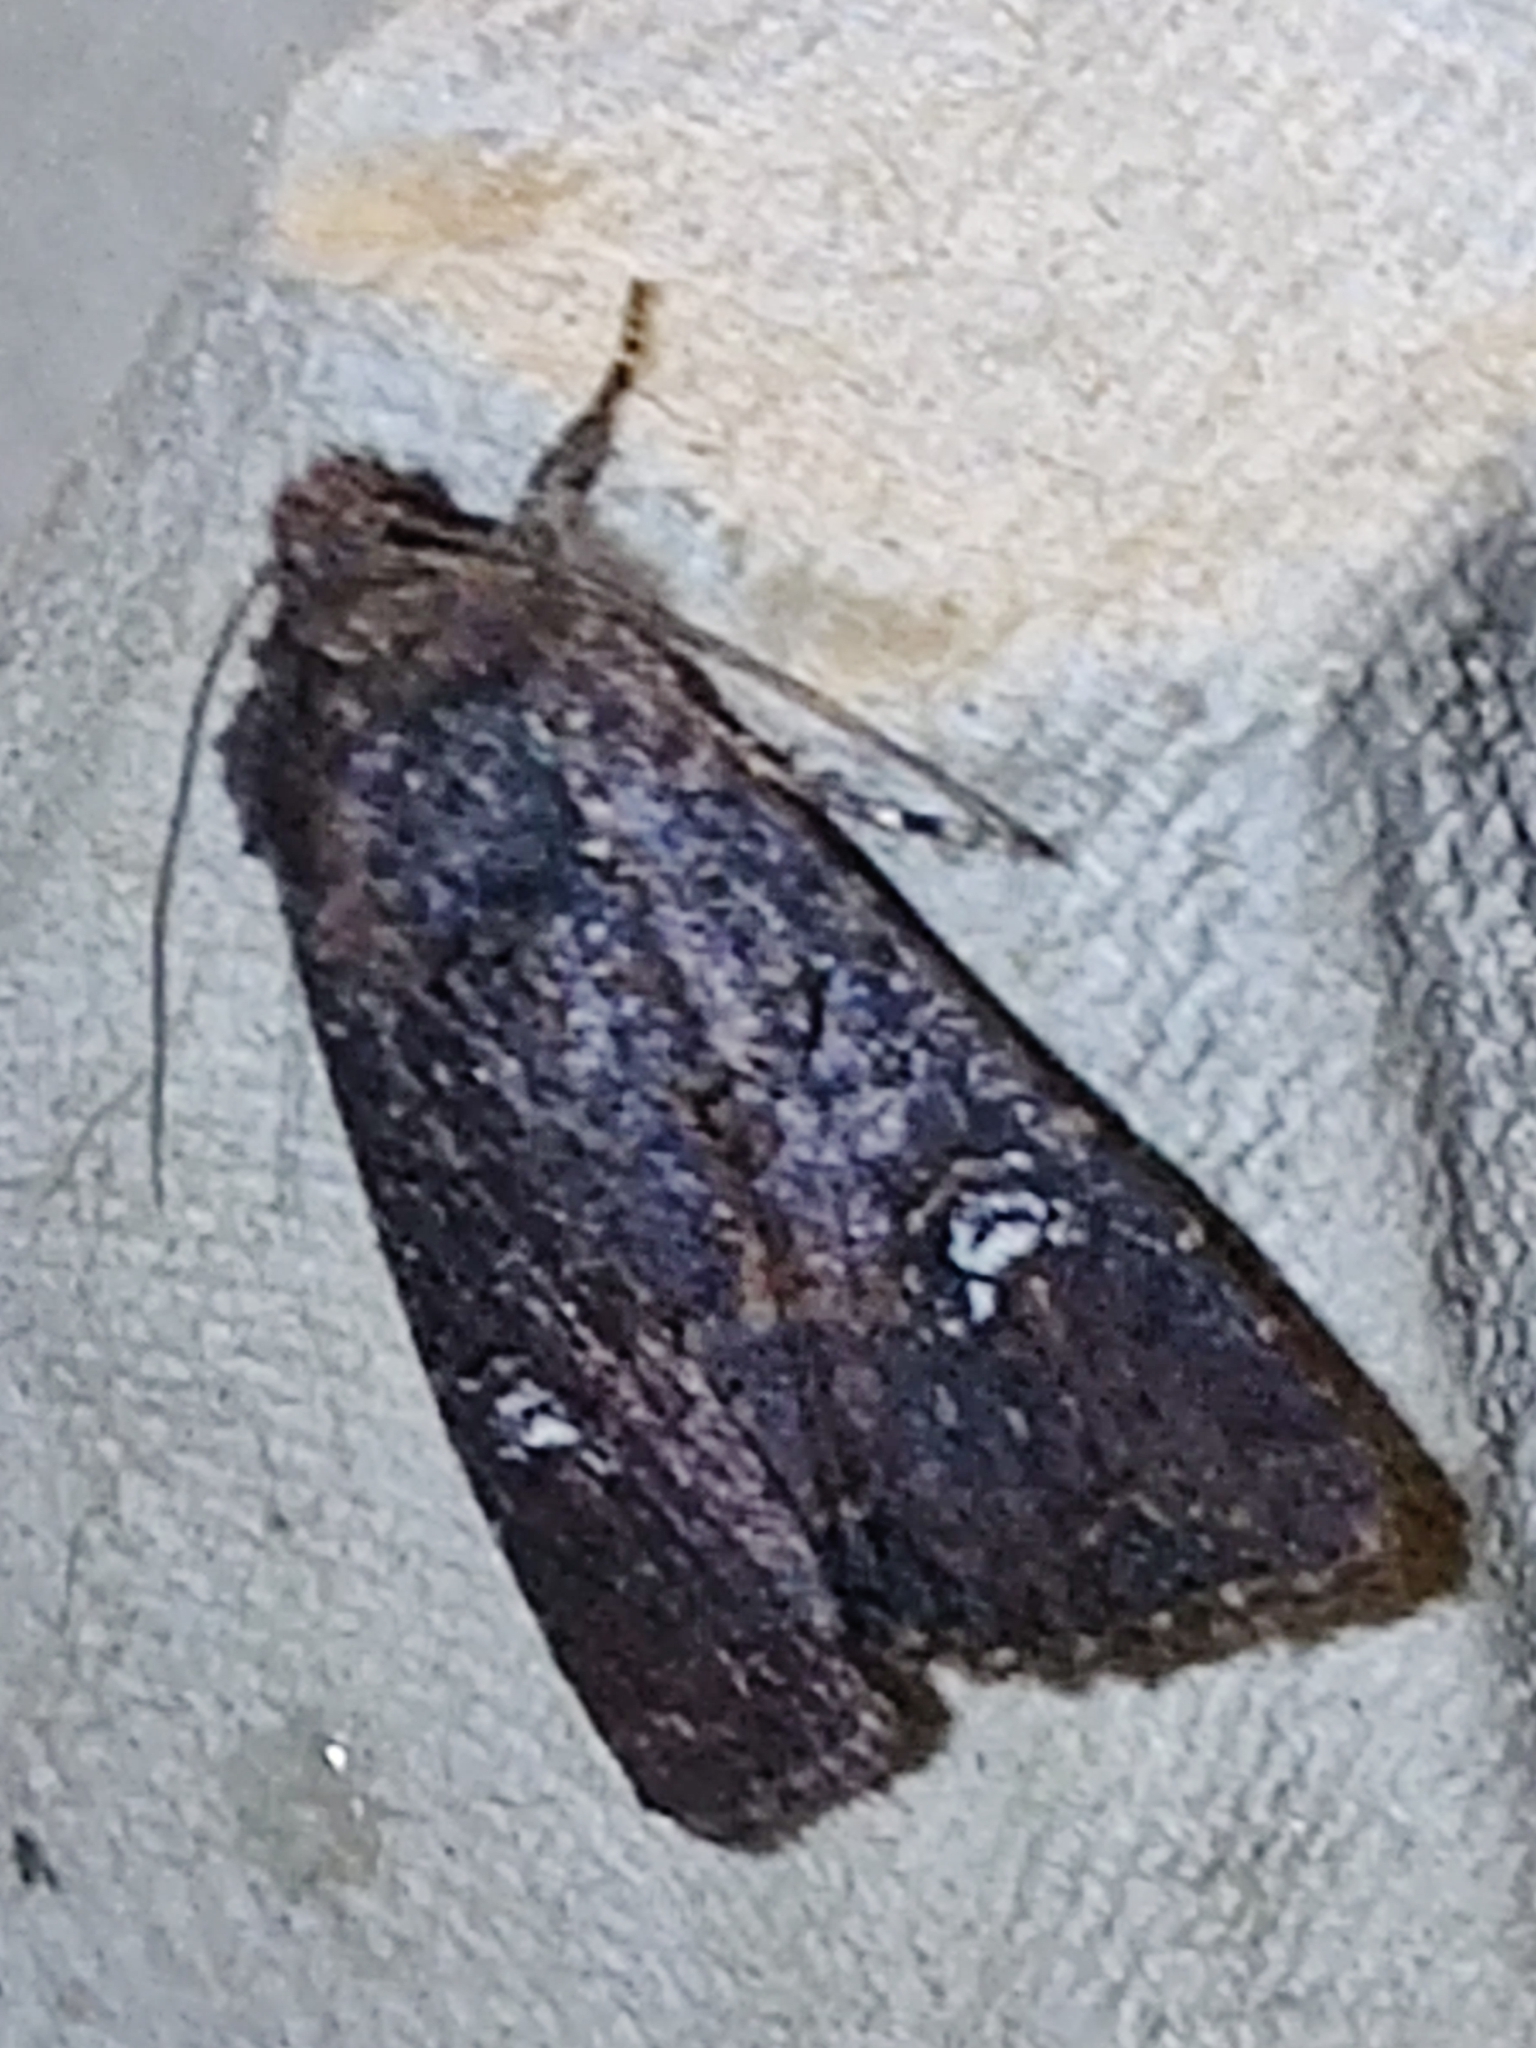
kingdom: Animalia
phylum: Arthropoda
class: Insecta
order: Lepidoptera
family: Noctuidae
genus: Mesapamea
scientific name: Mesapamea
